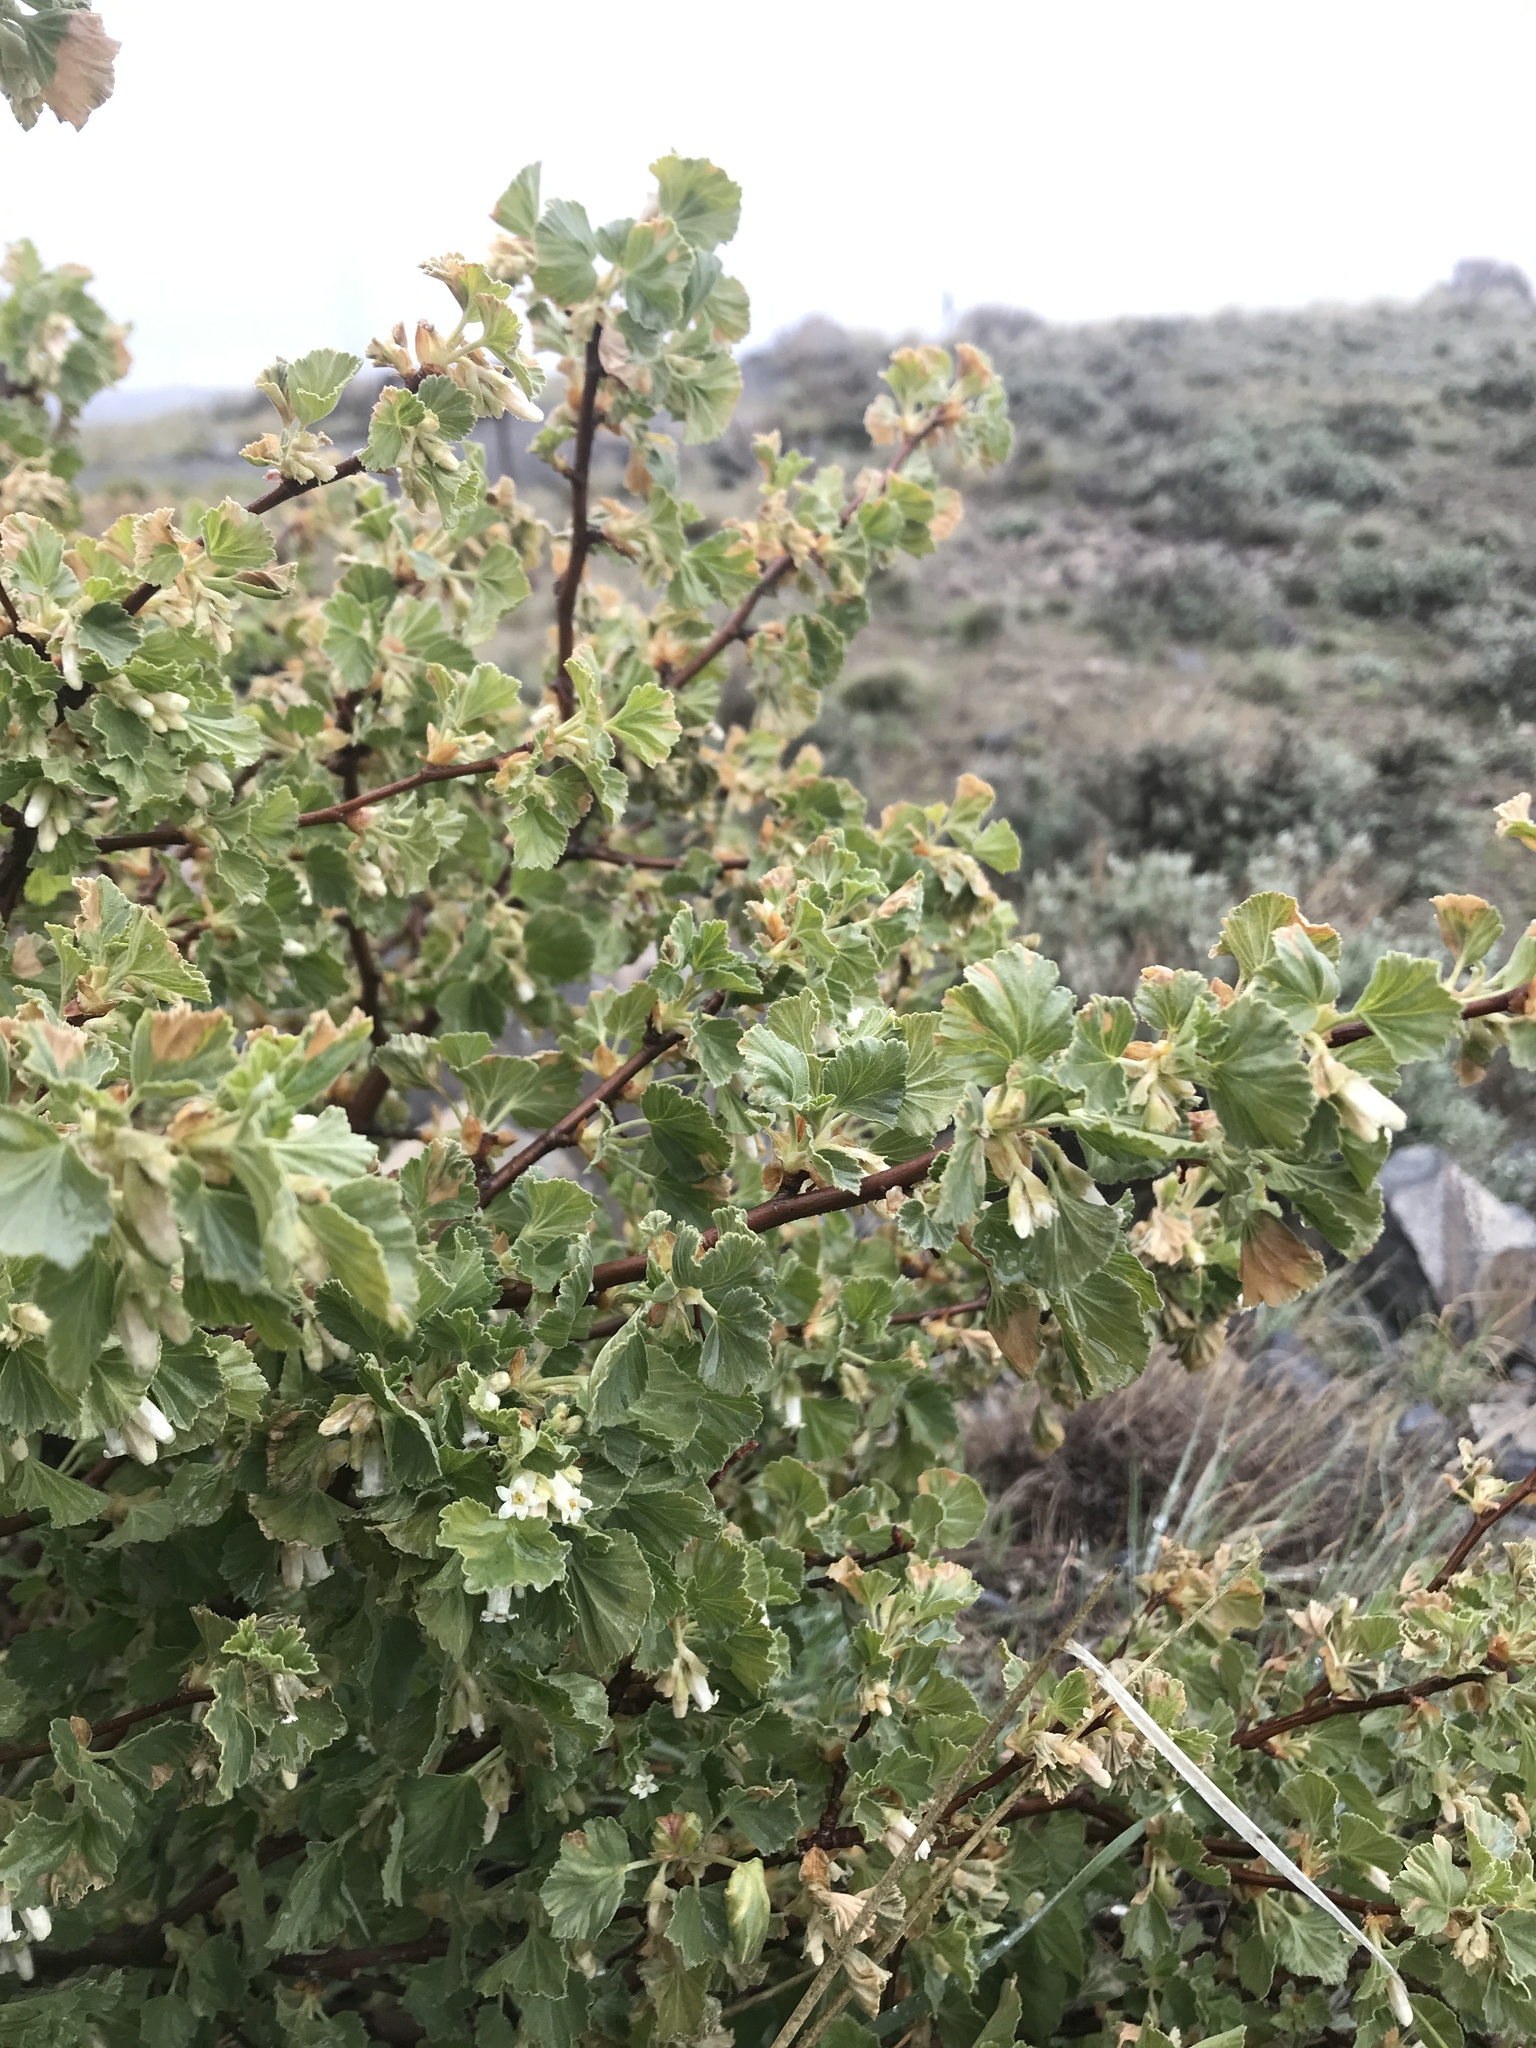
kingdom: Plantae
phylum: Tracheophyta
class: Magnoliopsida
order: Saxifragales
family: Grossulariaceae
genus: Ribes
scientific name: Ribes cereum
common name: Wax currant
